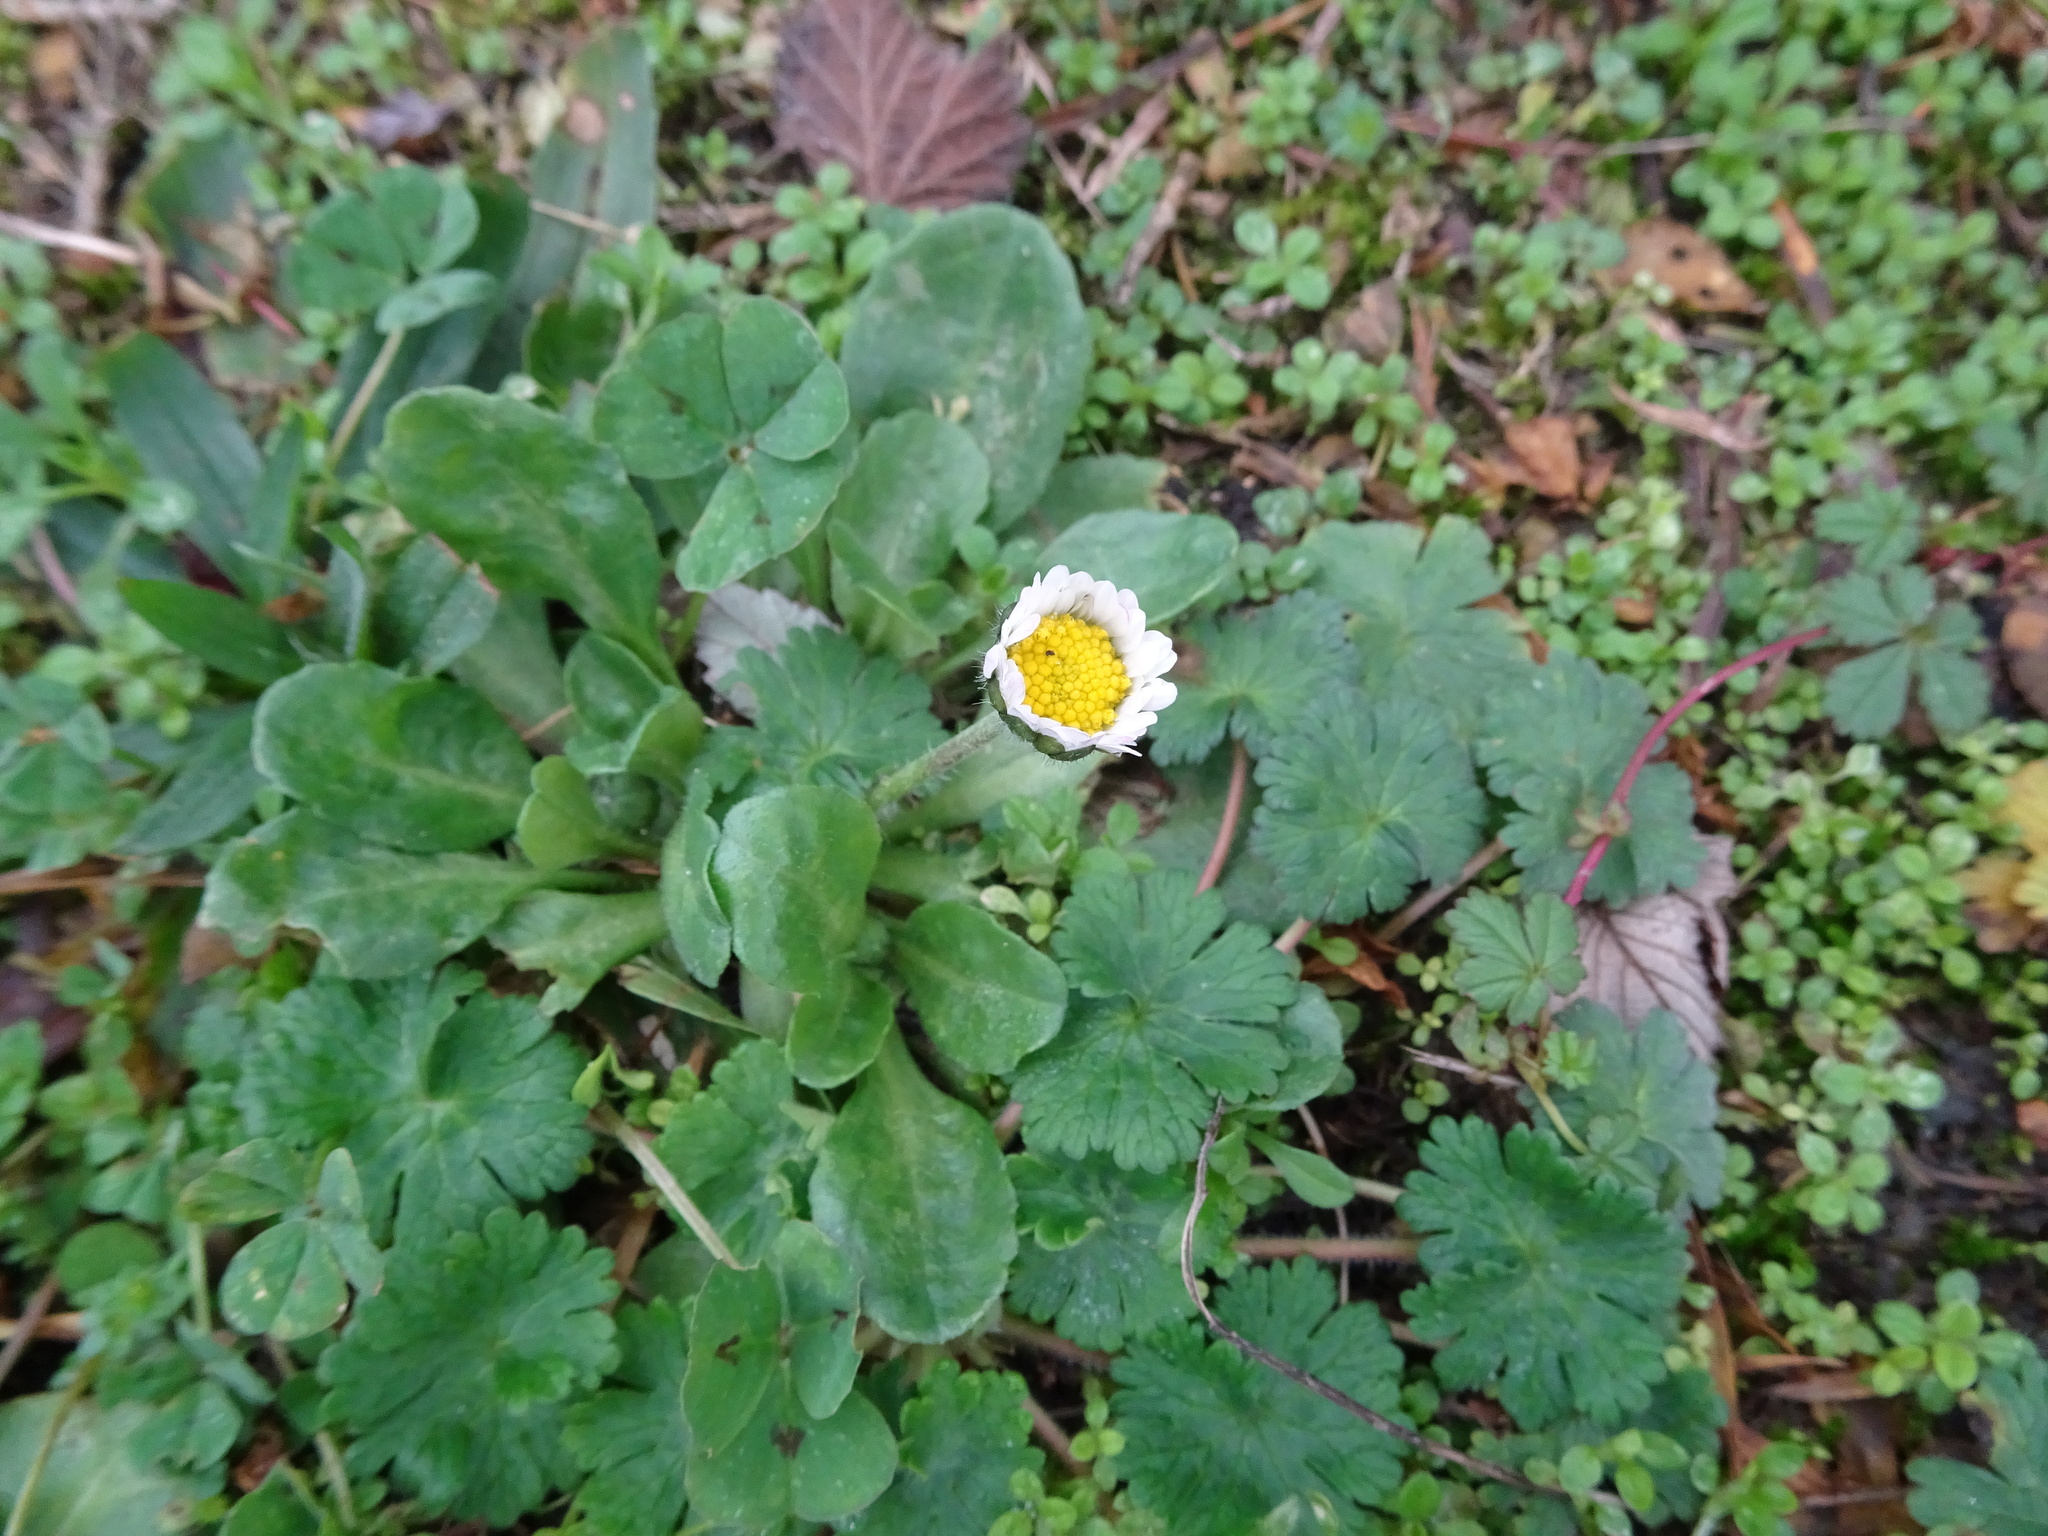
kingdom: Plantae
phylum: Tracheophyta
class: Magnoliopsida
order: Asterales
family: Asteraceae
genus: Bellis
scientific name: Bellis perennis
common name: Lawndaisy
